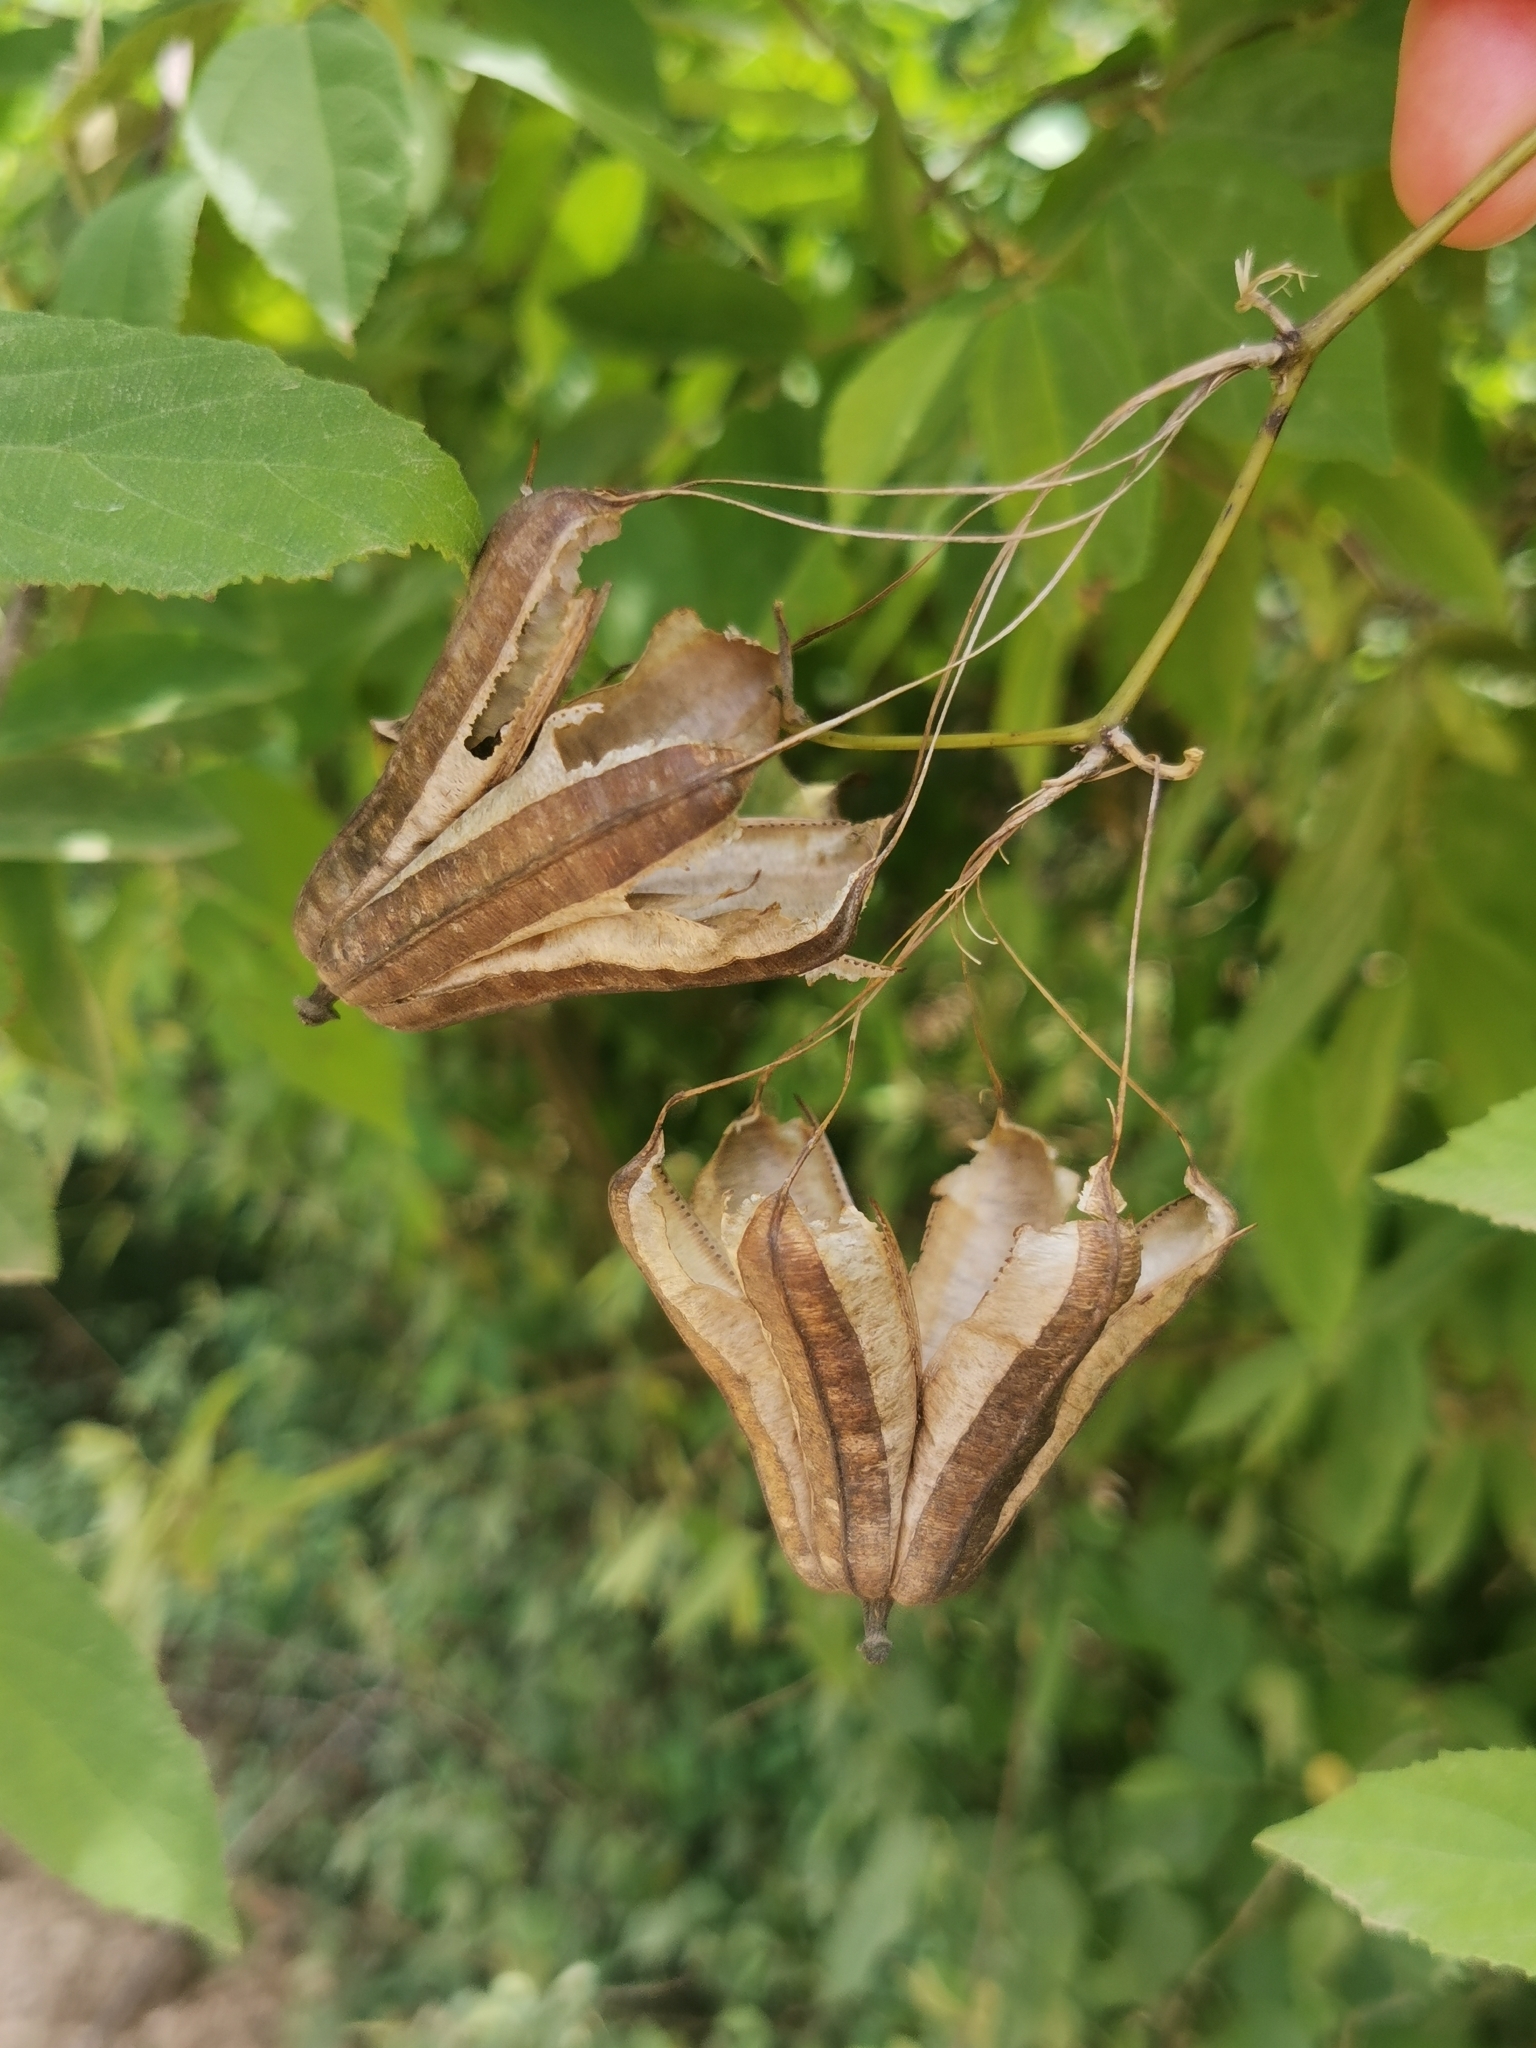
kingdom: Plantae
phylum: Tracheophyta
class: Magnoliopsida
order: Piperales
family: Aristolochiaceae
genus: Aristolochia
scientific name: Aristolochia littoralis
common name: Duck
